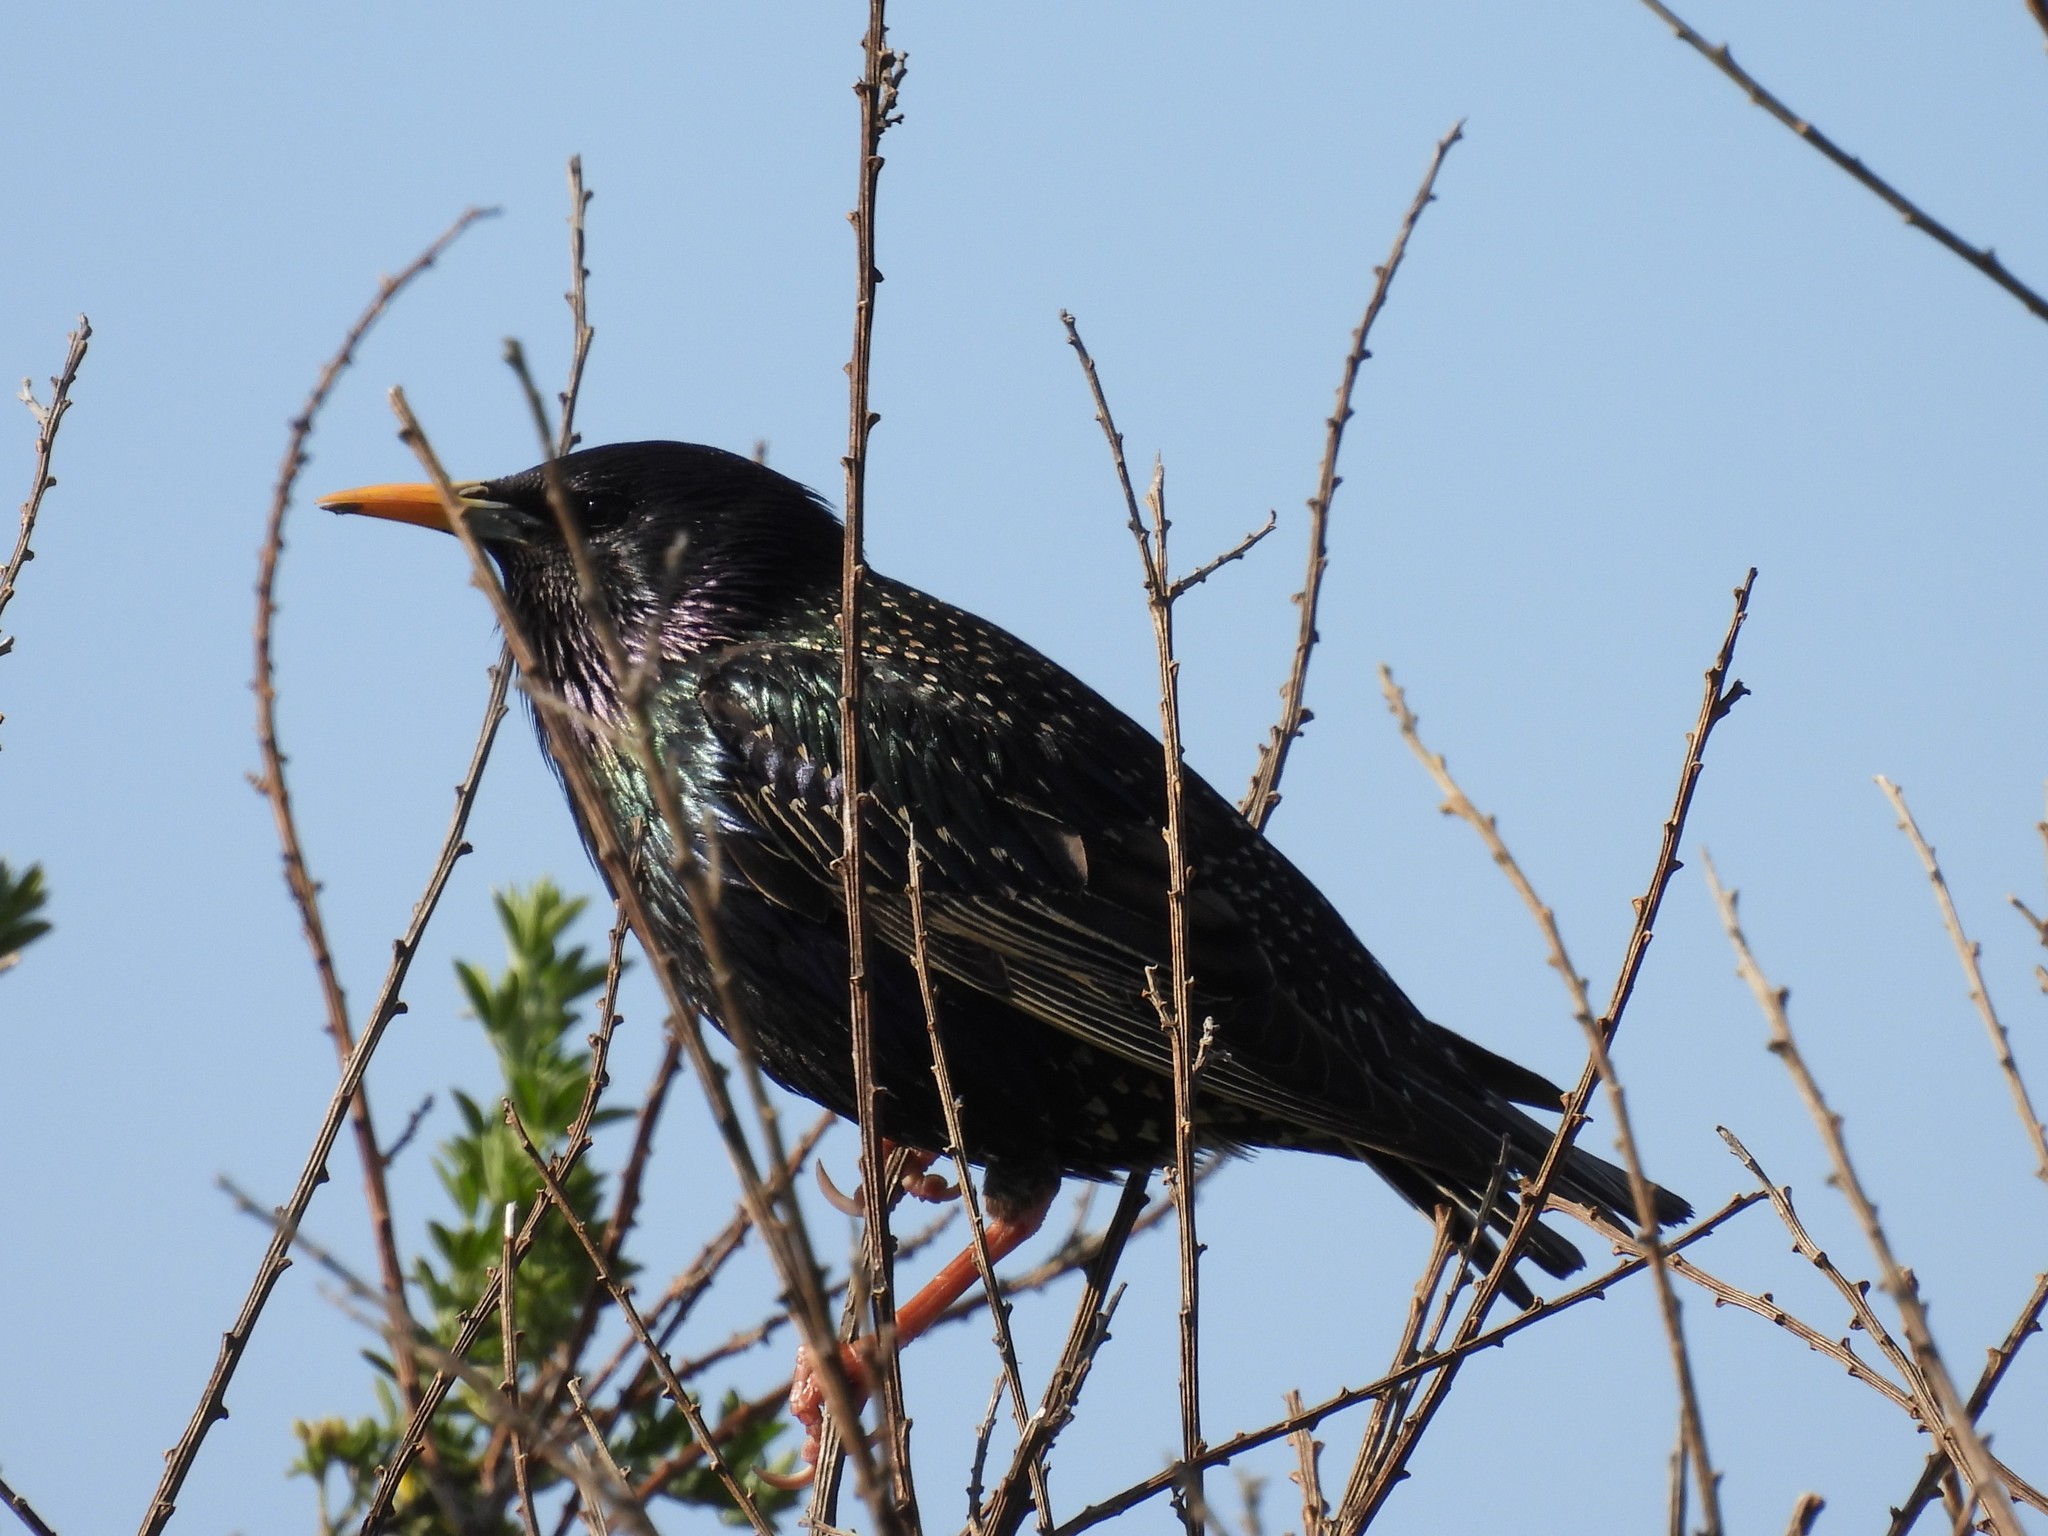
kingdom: Animalia
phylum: Chordata
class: Aves
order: Passeriformes
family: Sturnidae
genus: Sturnus
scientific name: Sturnus vulgaris
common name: Common starling
